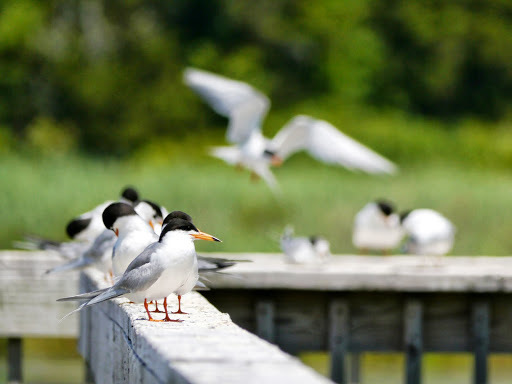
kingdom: Animalia
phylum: Chordata
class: Aves
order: Charadriiformes
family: Laridae
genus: Sterna
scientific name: Sterna forsteri
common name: Forster's tern
